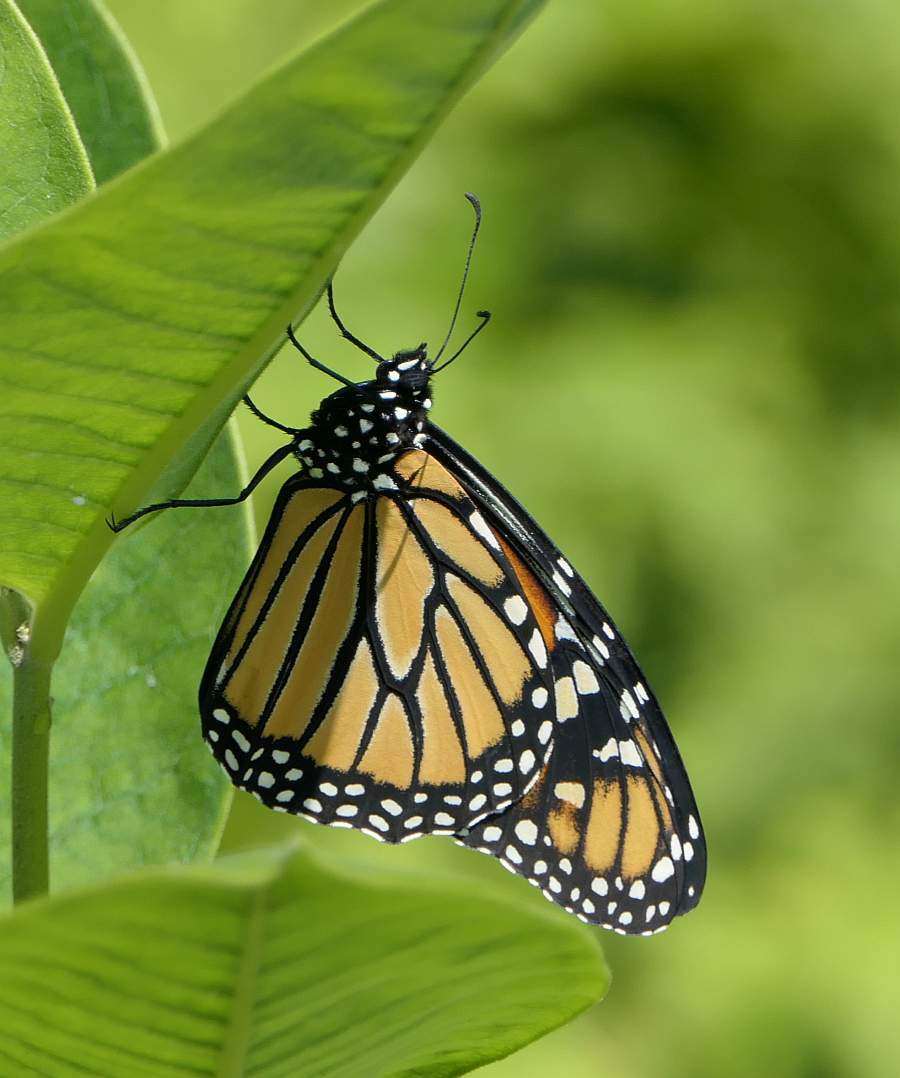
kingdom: Animalia
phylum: Arthropoda
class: Insecta
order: Lepidoptera
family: Nymphalidae
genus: Danaus
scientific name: Danaus plexippus
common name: Monarch
